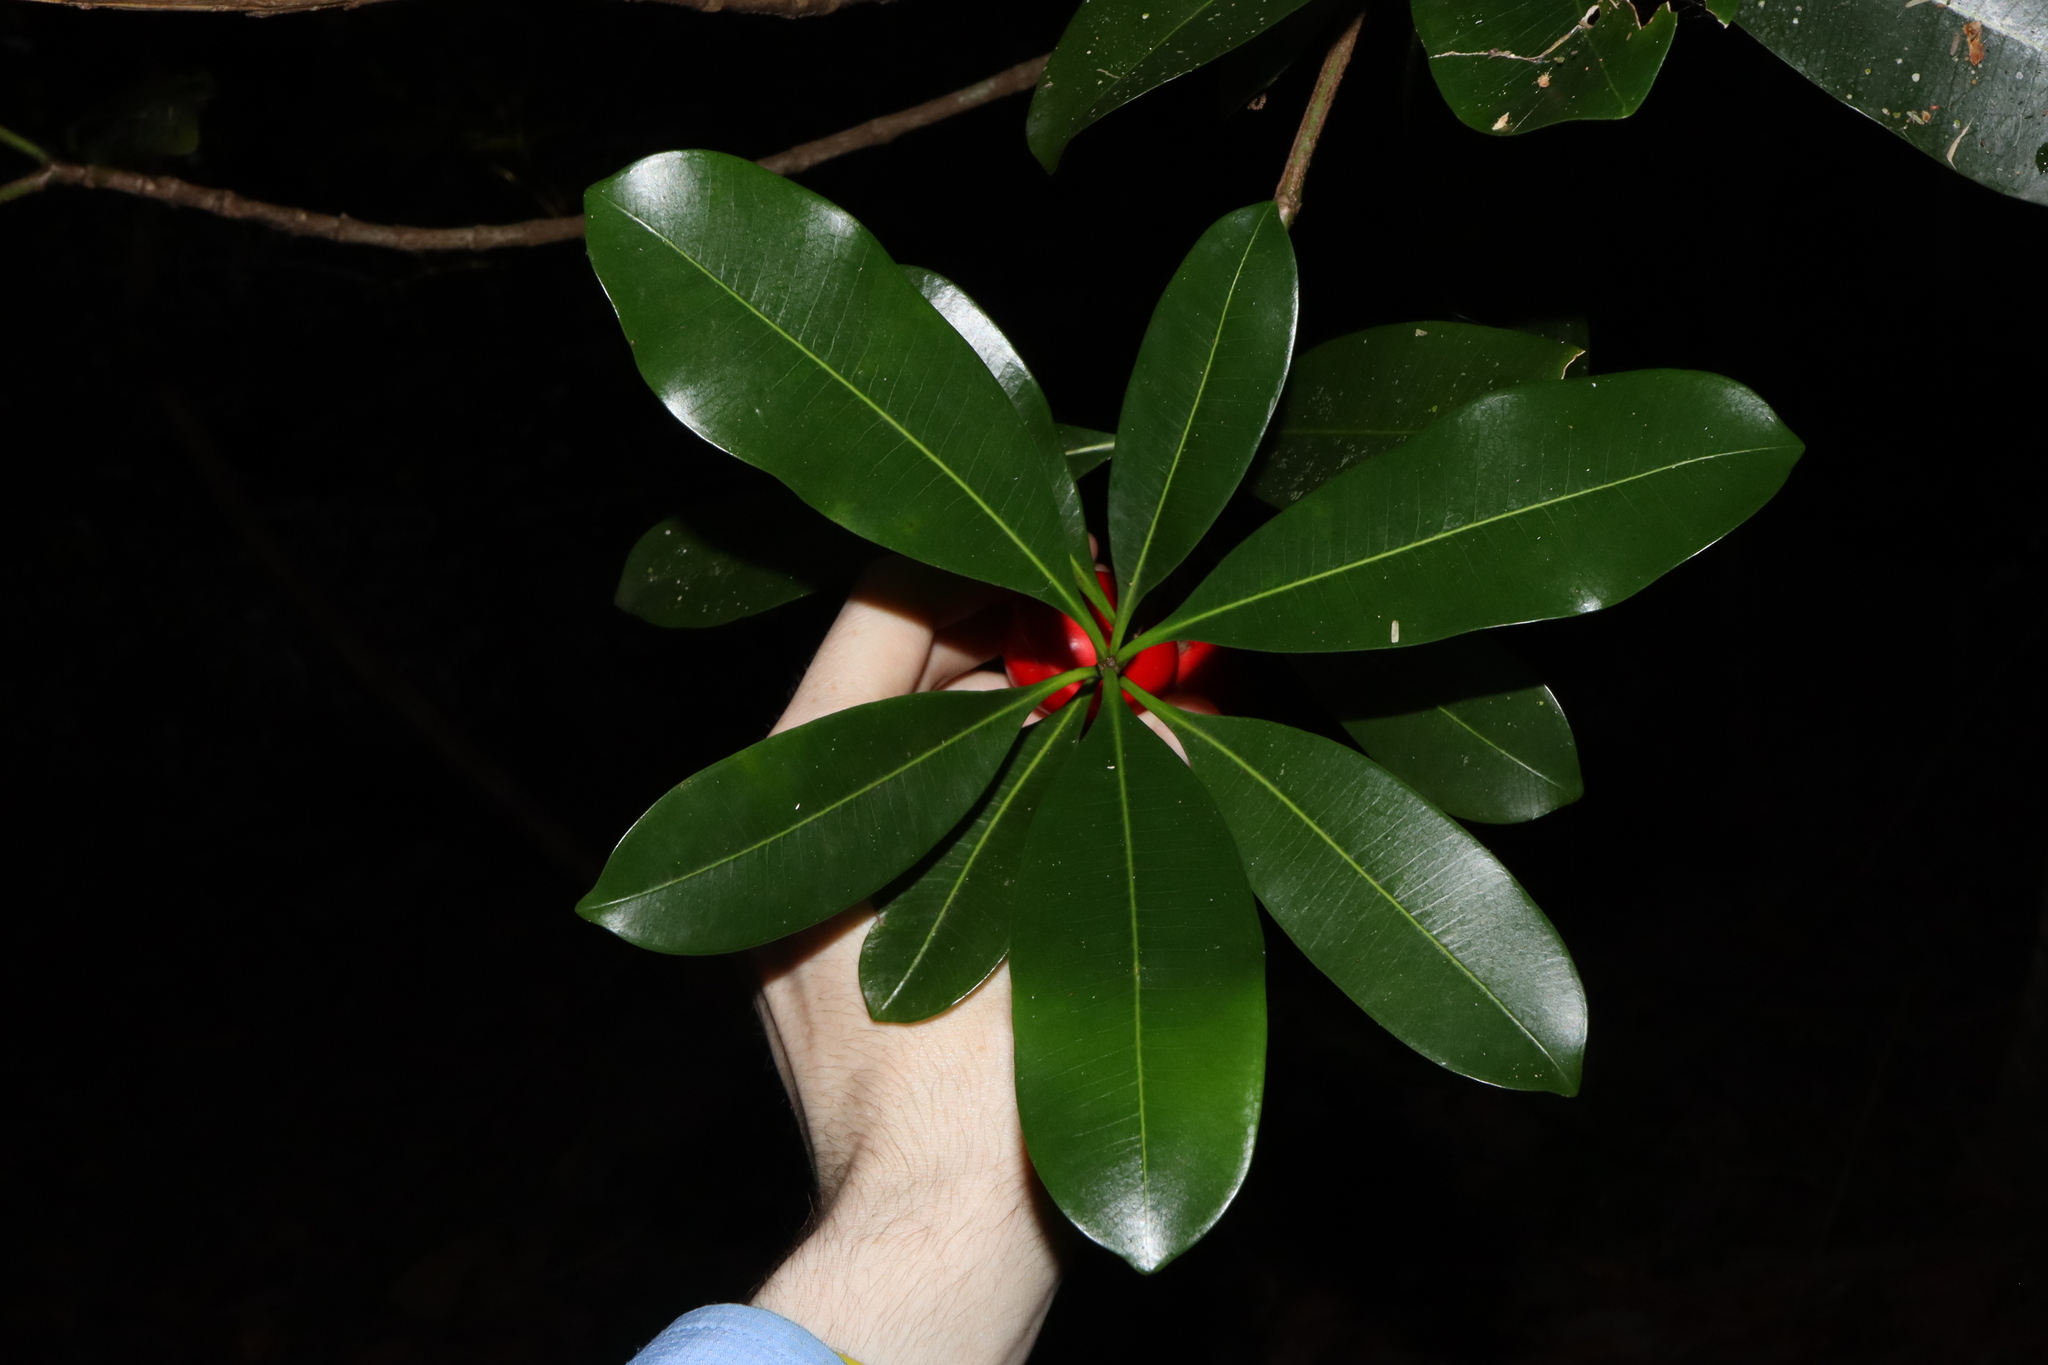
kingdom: Plantae
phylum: Tracheophyta
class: Magnoliopsida
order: Gentianales
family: Apocynaceae
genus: Ochrosia
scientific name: Ochrosia elliptica
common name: Elliptic yellowwood
